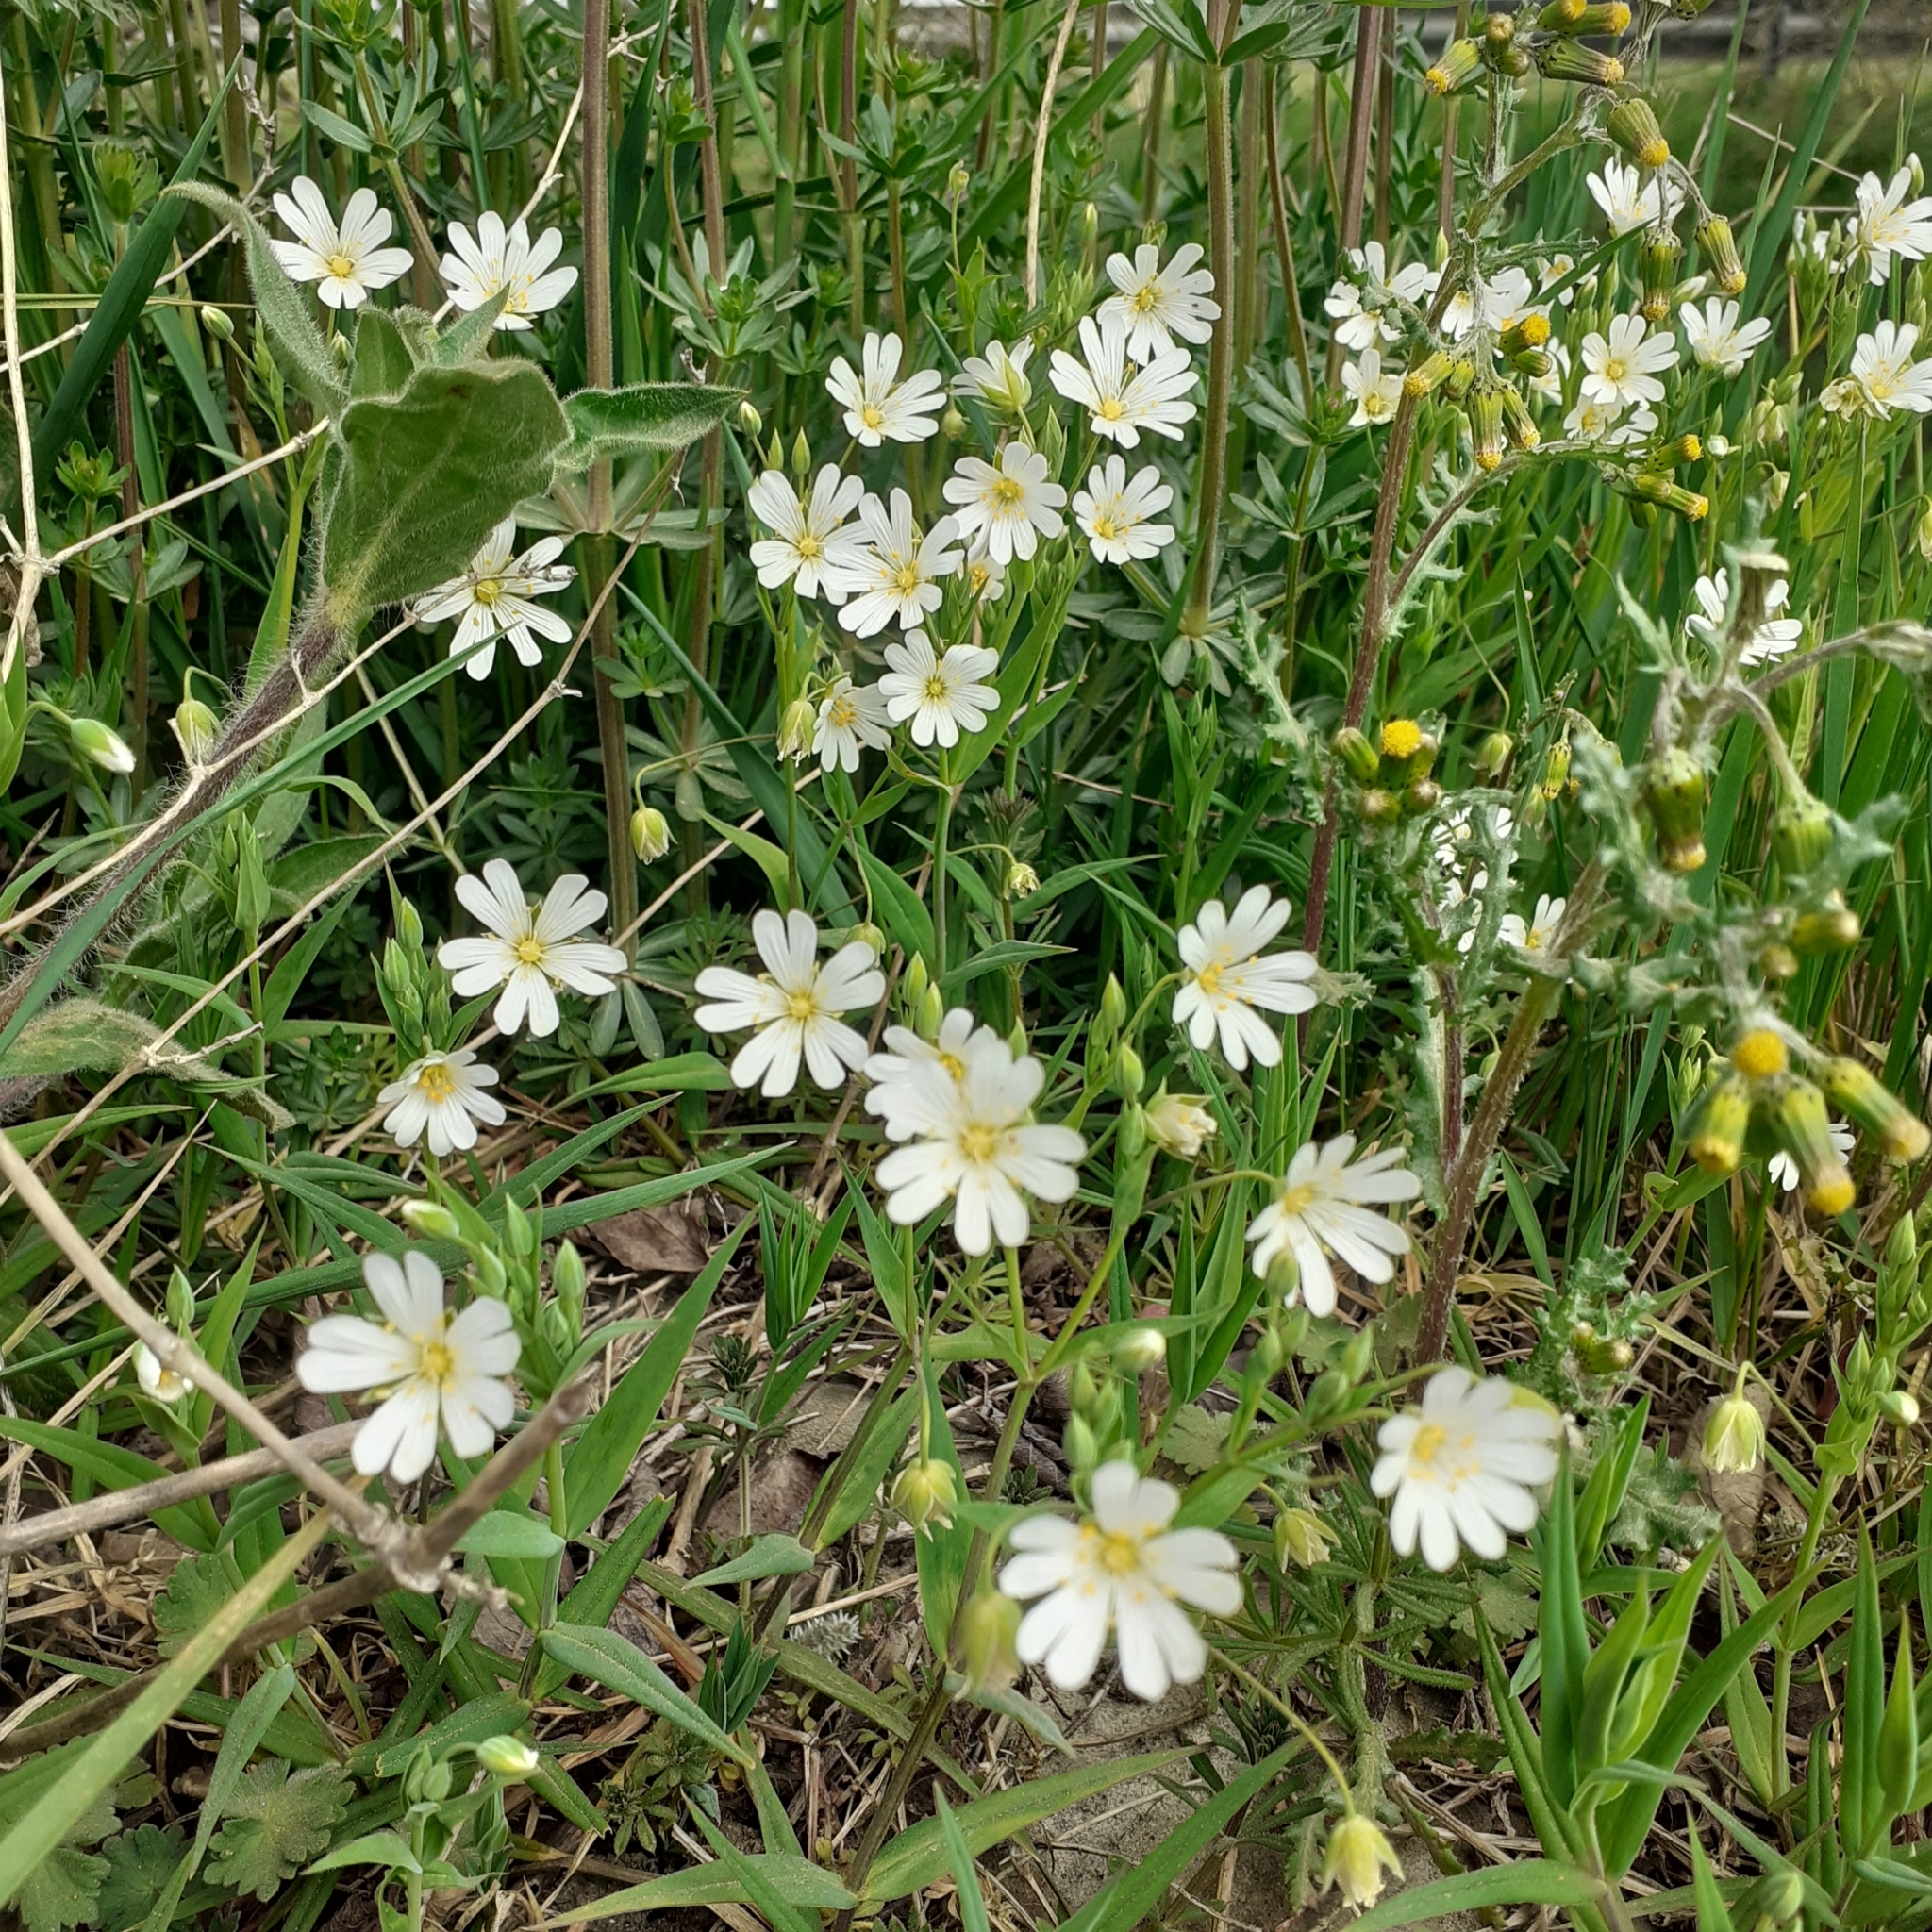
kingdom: Plantae
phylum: Tracheophyta
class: Magnoliopsida
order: Caryophyllales
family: Caryophyllaceae
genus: Rabelera
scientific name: Rabelera holostea
